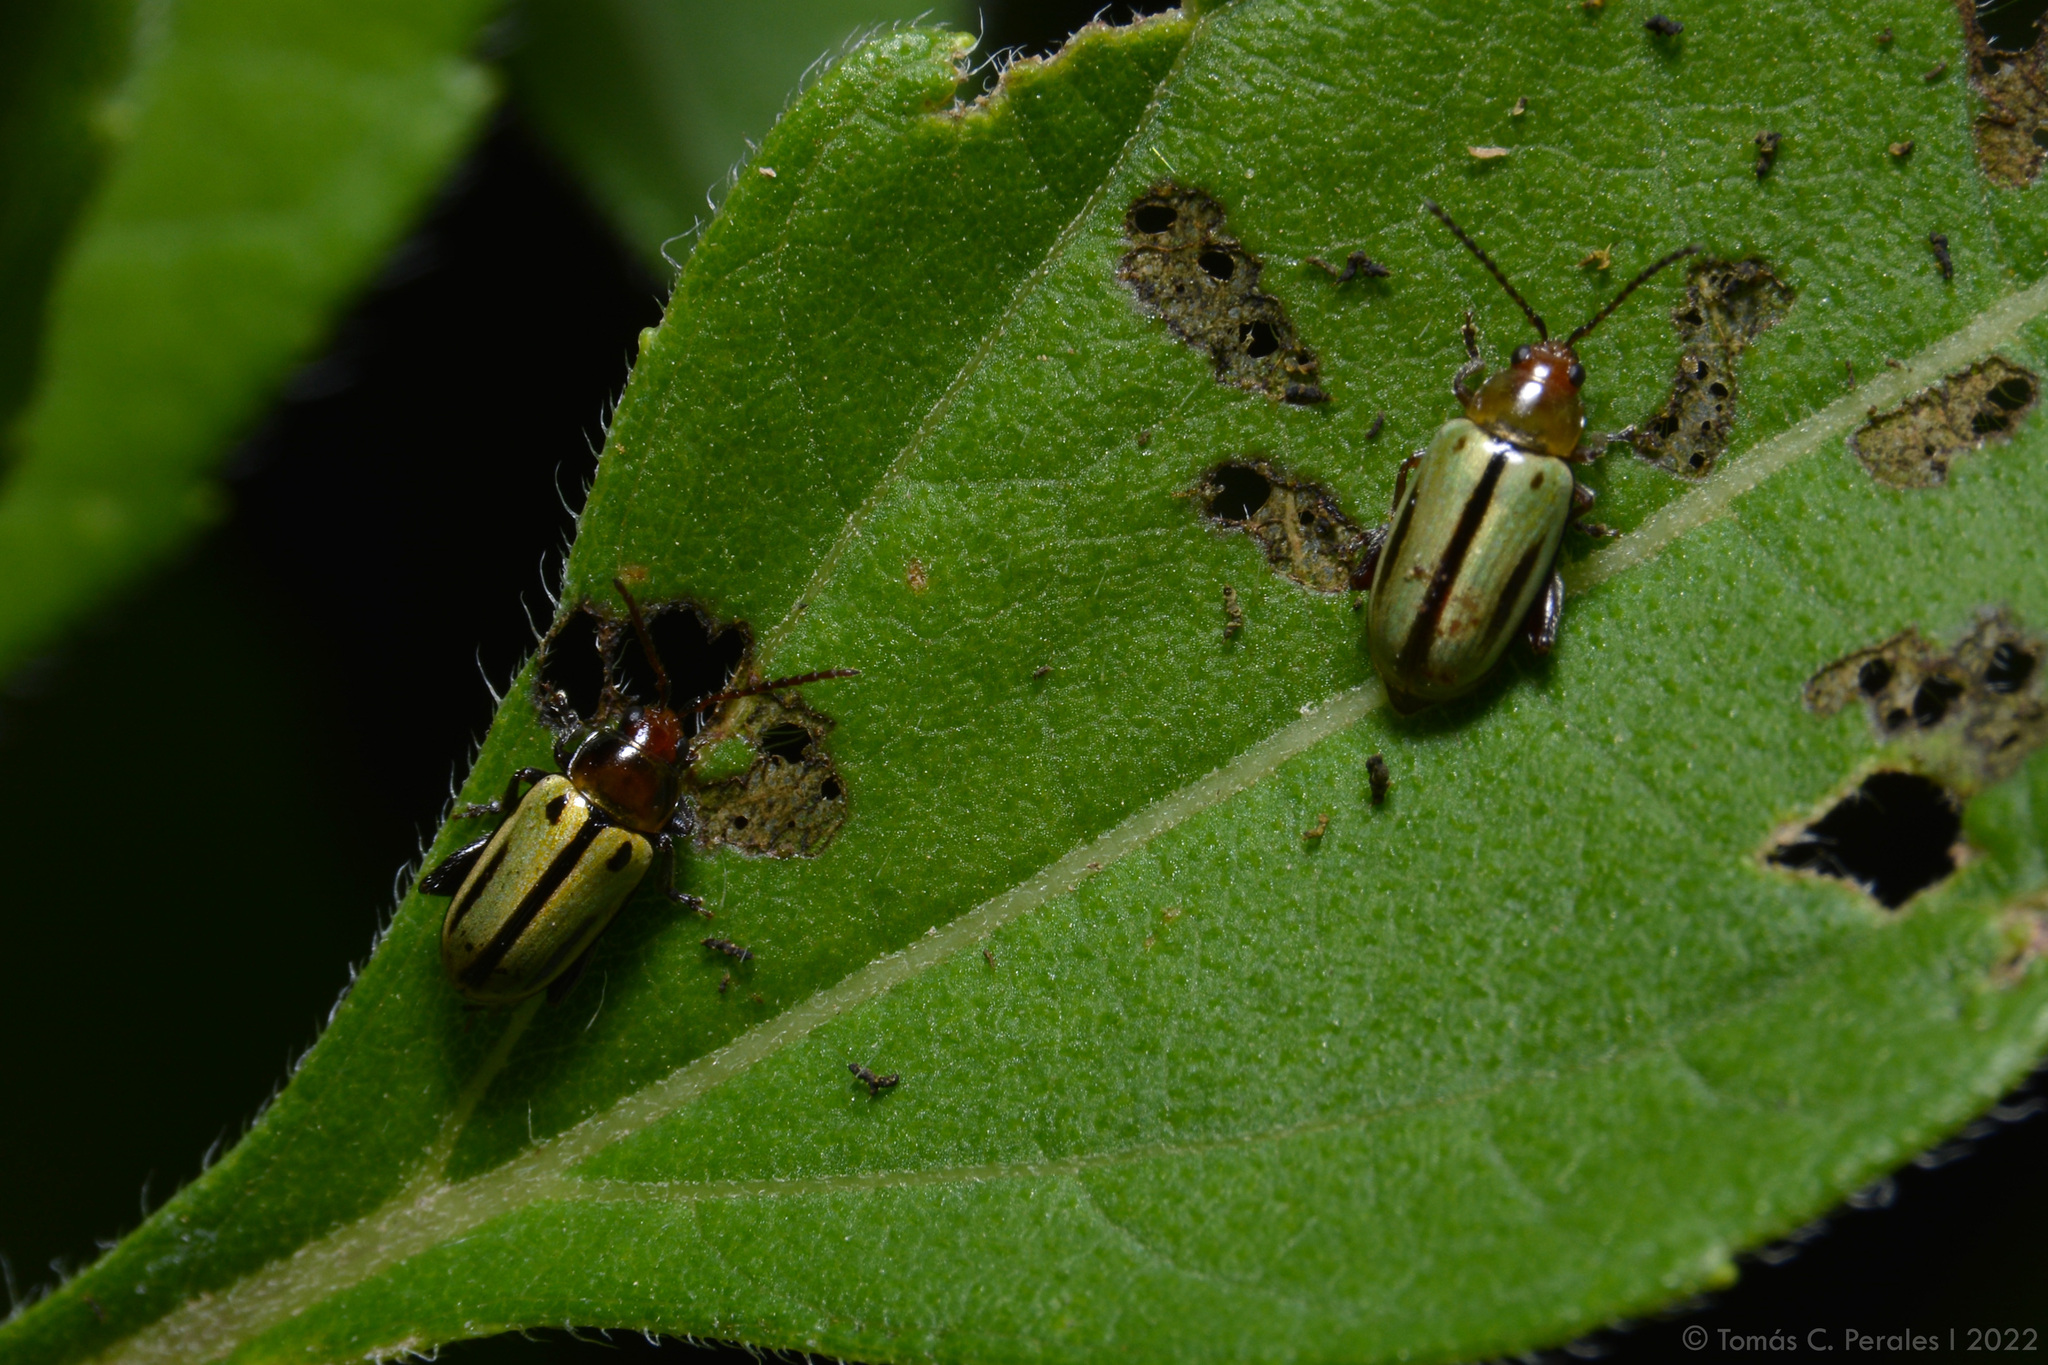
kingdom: Animalia
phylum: Arthropoda
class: Insecta
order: Coleoptera
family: Chrysomelidae
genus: Disonychodes
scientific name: Disonychodes
